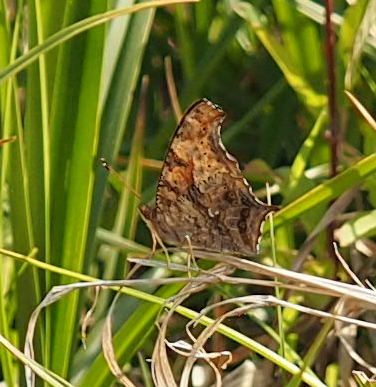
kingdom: Animalia
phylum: Arthropoda
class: Insecta
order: Lepidoptera
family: Nymphalidae
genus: Polygonia
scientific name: Polygonia interrogationis
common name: Question mark
